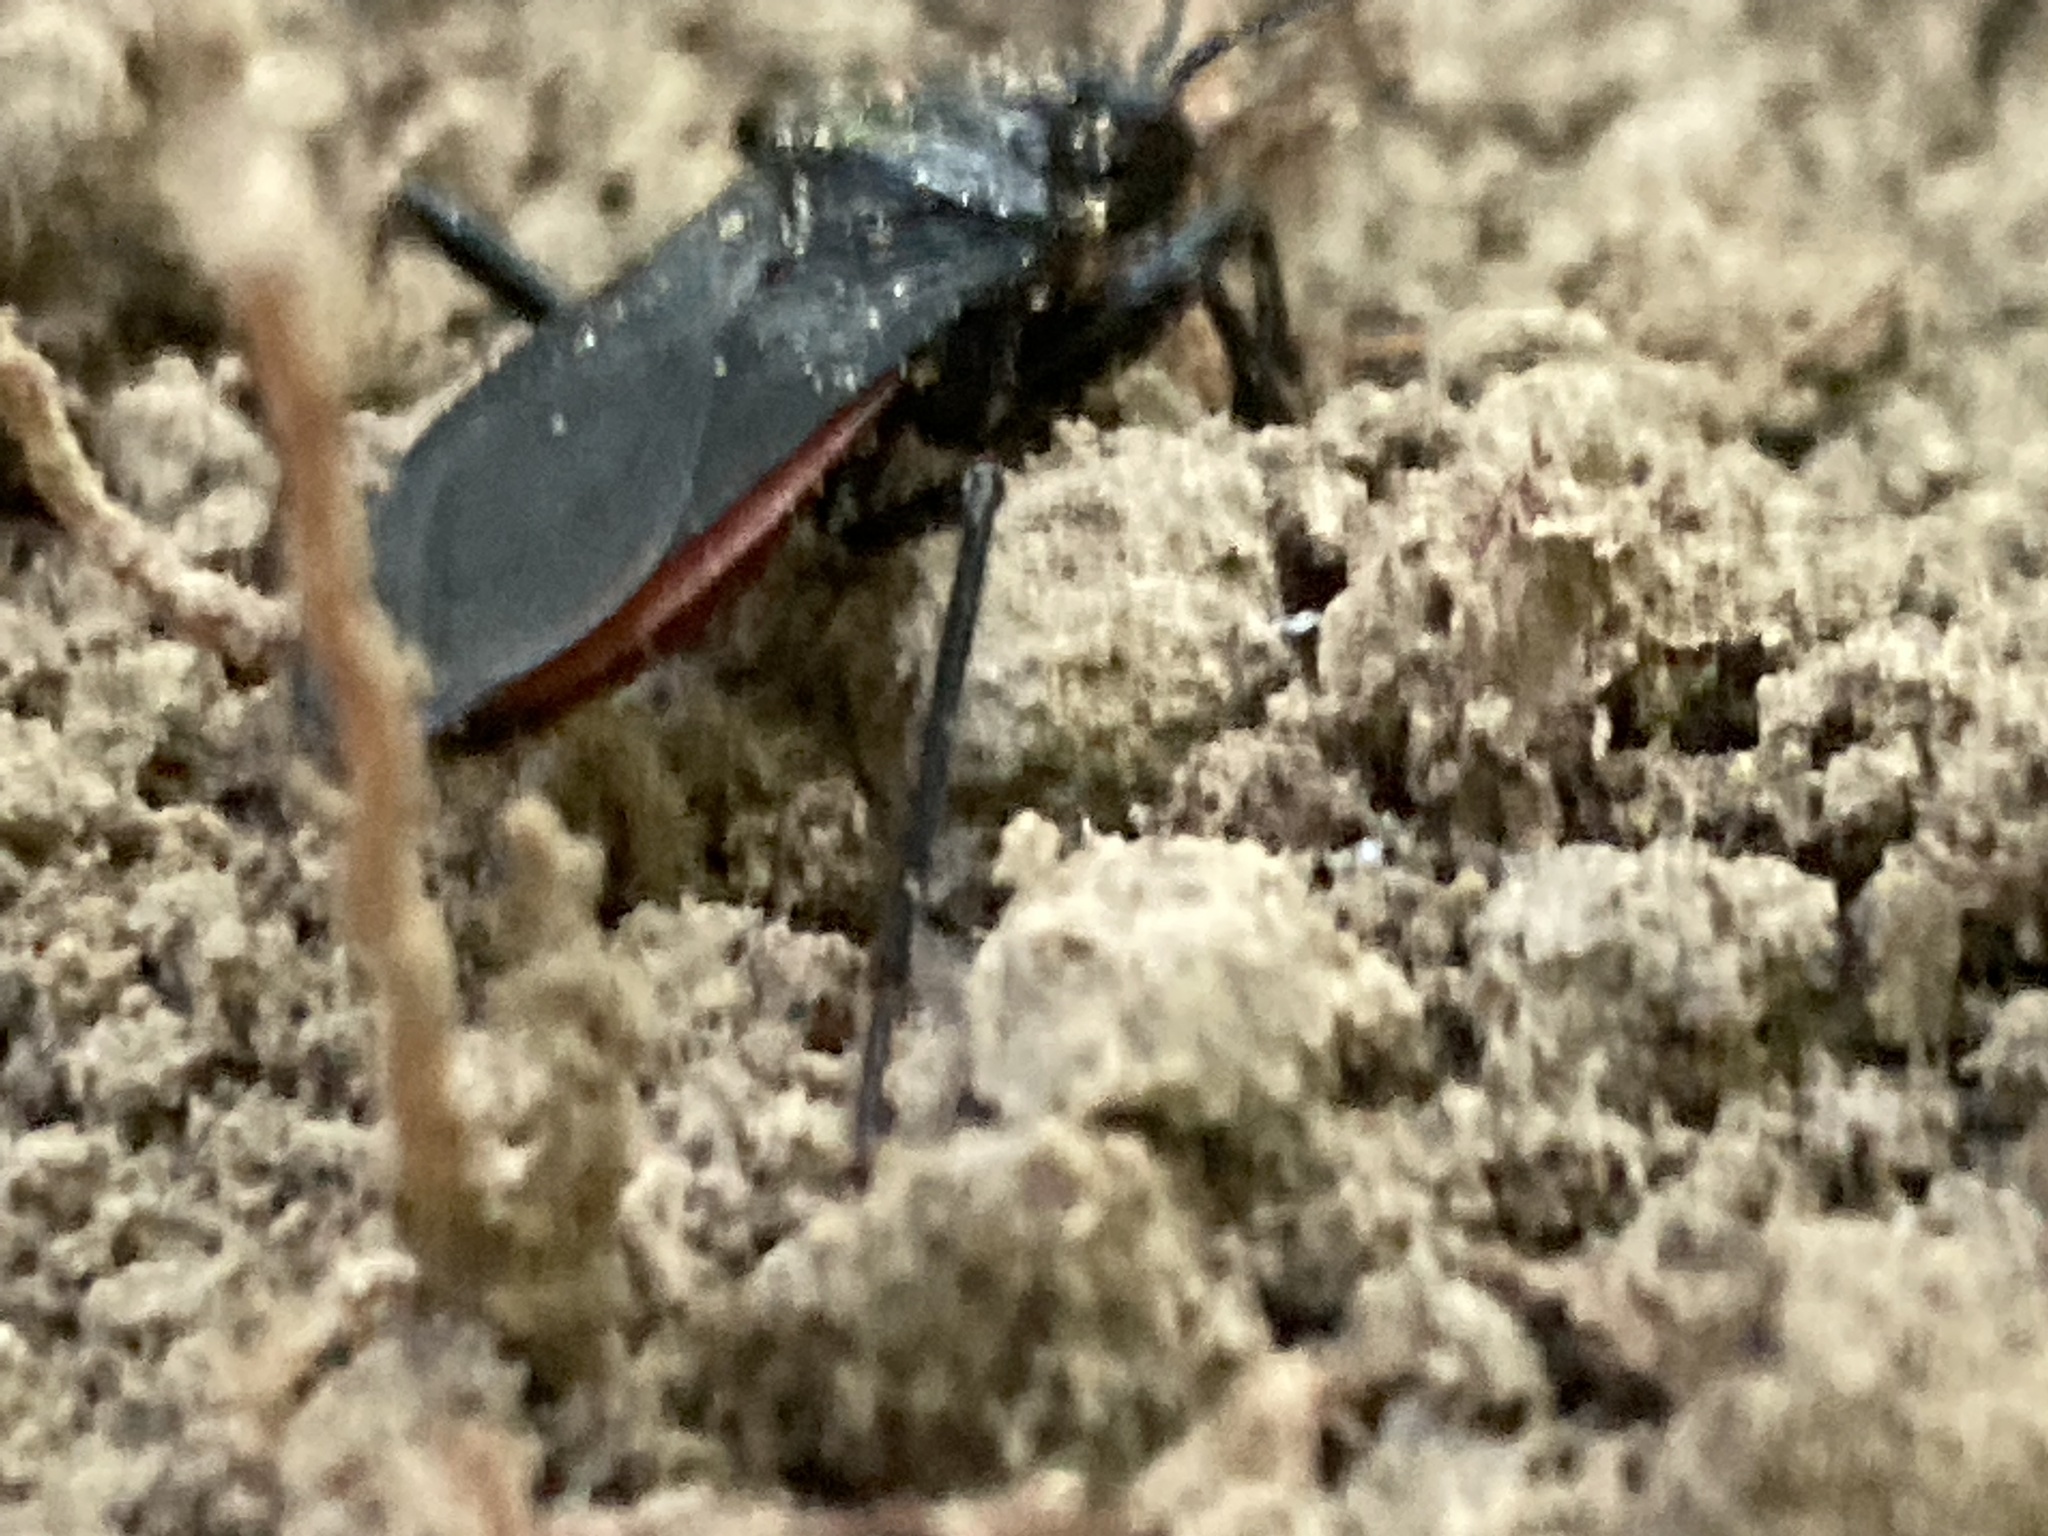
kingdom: Animalia
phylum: Arthropoda
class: Insecta
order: Hemiptera
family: Reduviidae
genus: Melanolestes
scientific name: Melanolestes picipes
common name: Assassin bug
